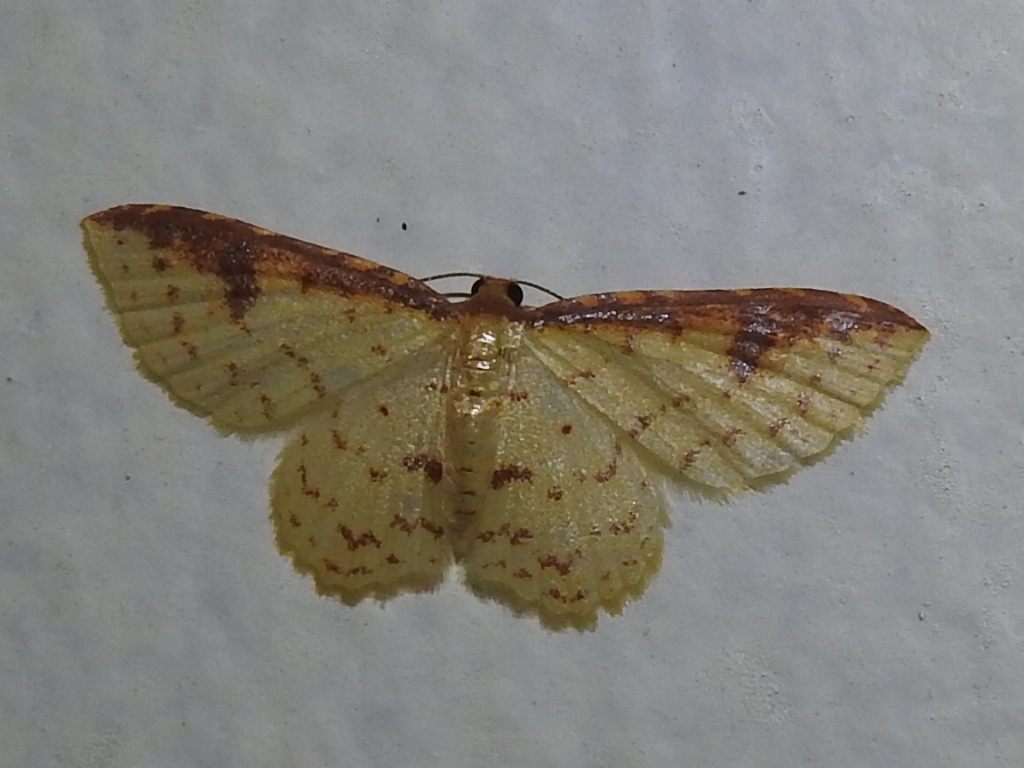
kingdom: Animalia
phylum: Arthropoda
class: Insecta
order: Lepidoptera
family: Geometridae
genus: Eois
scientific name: Eois brunneicosta
